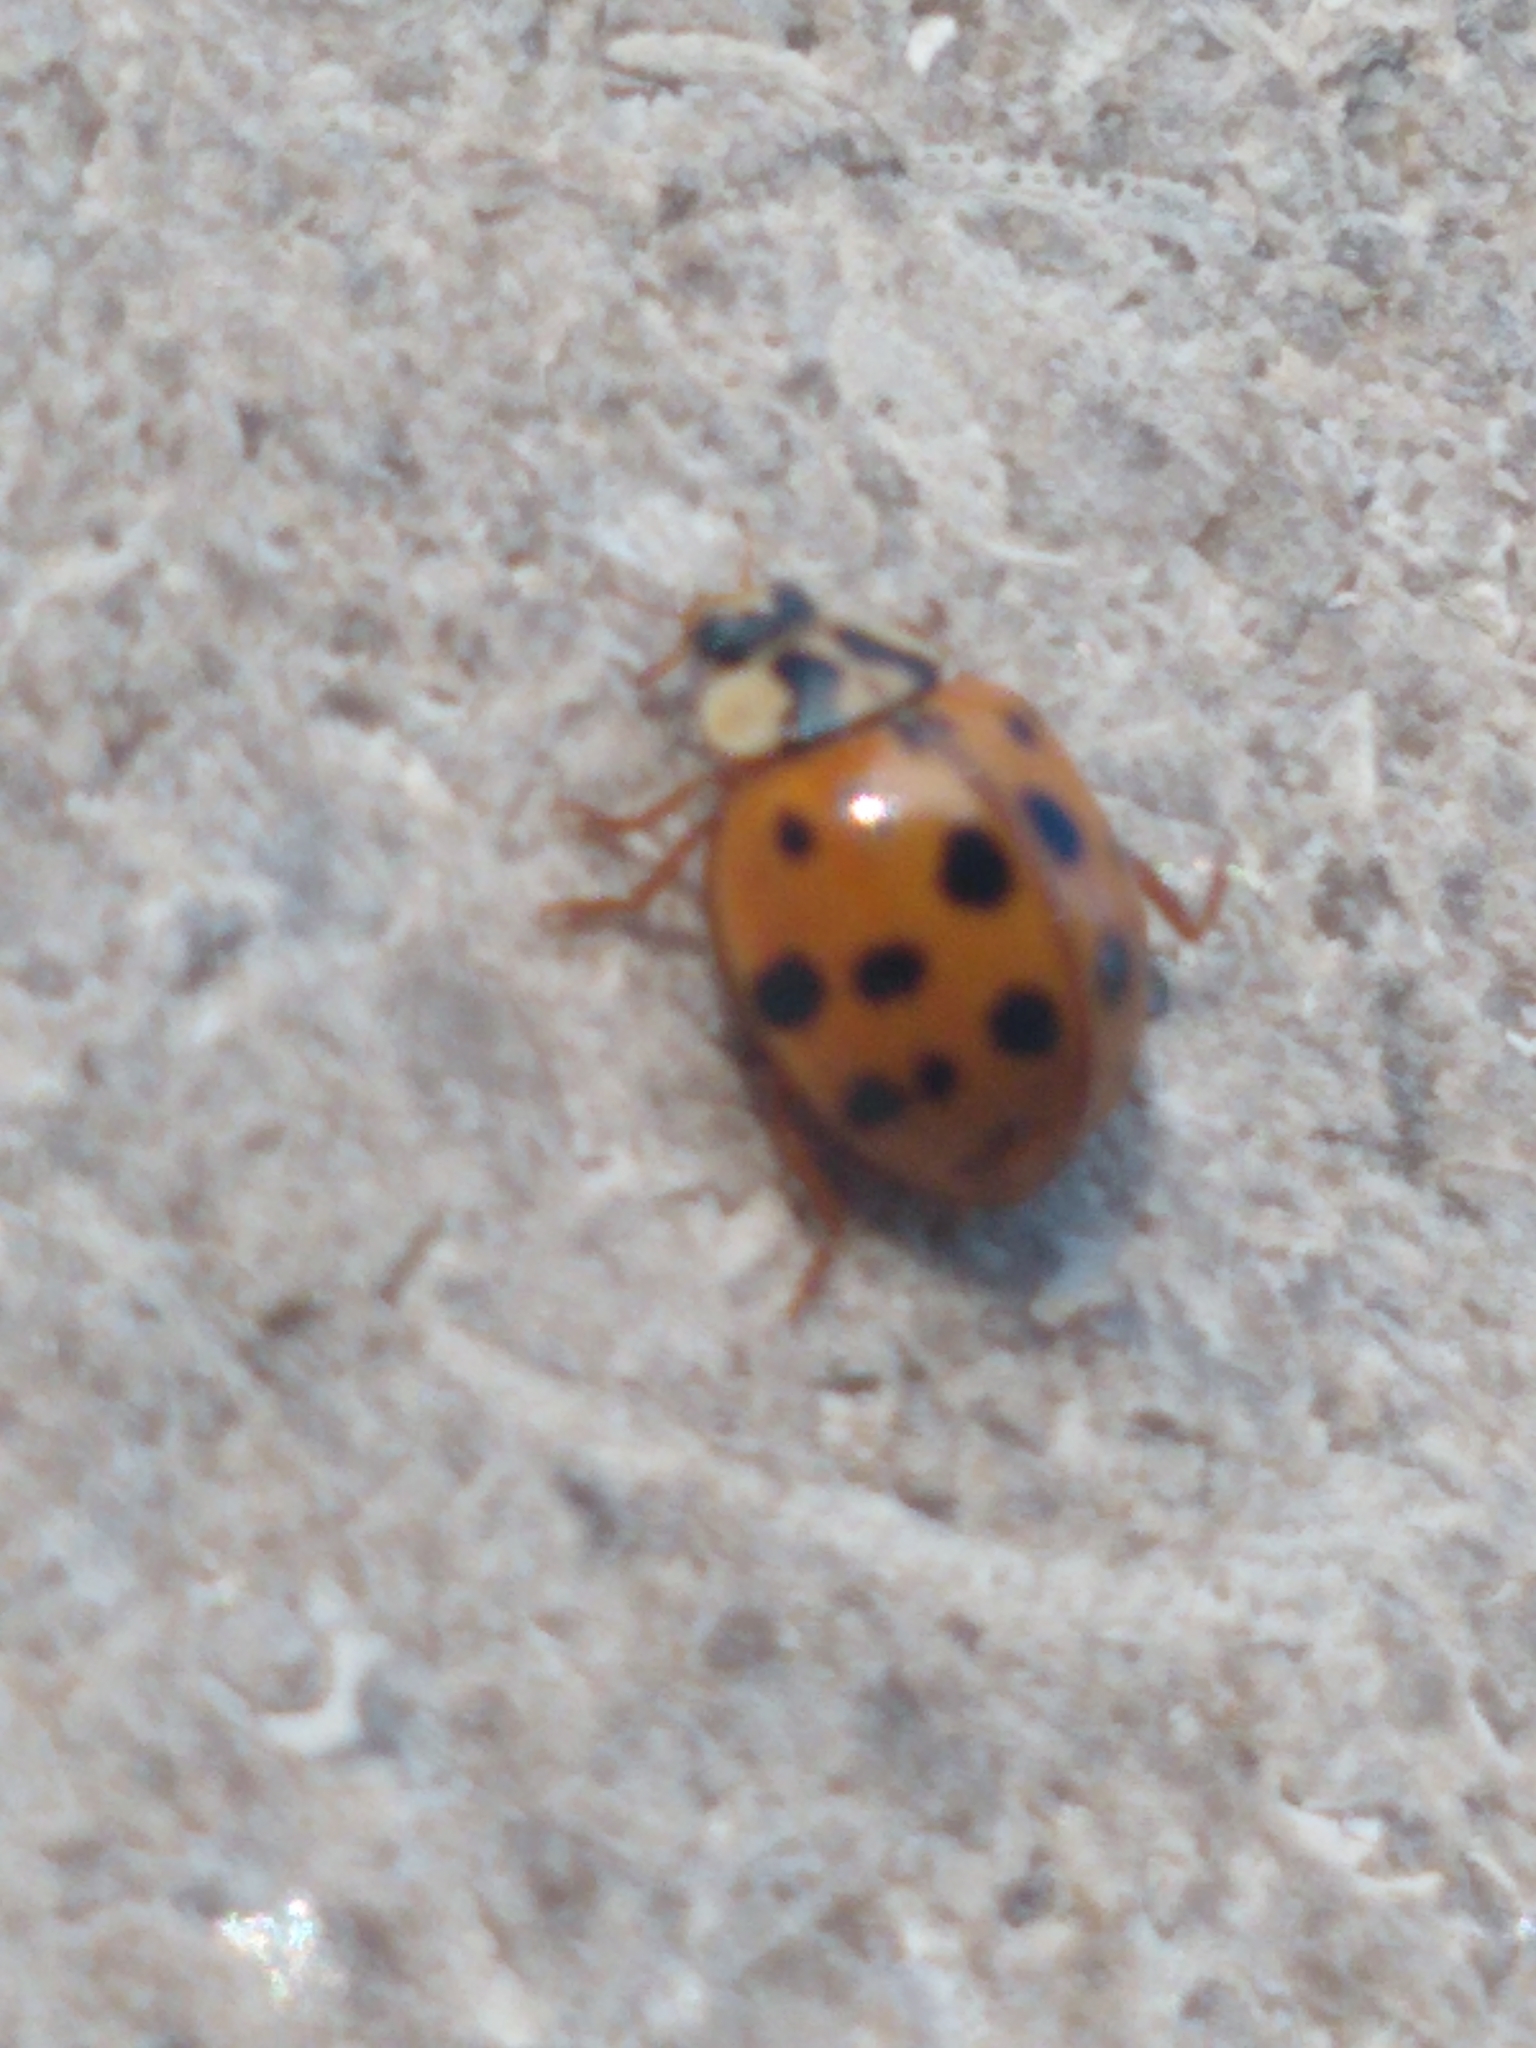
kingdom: Animalia
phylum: Arthropoda
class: Insecta
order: Coleoptera
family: Coccinellidae
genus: Harmonia
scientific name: Harmonia axyridis
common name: Harlequin ladybird
